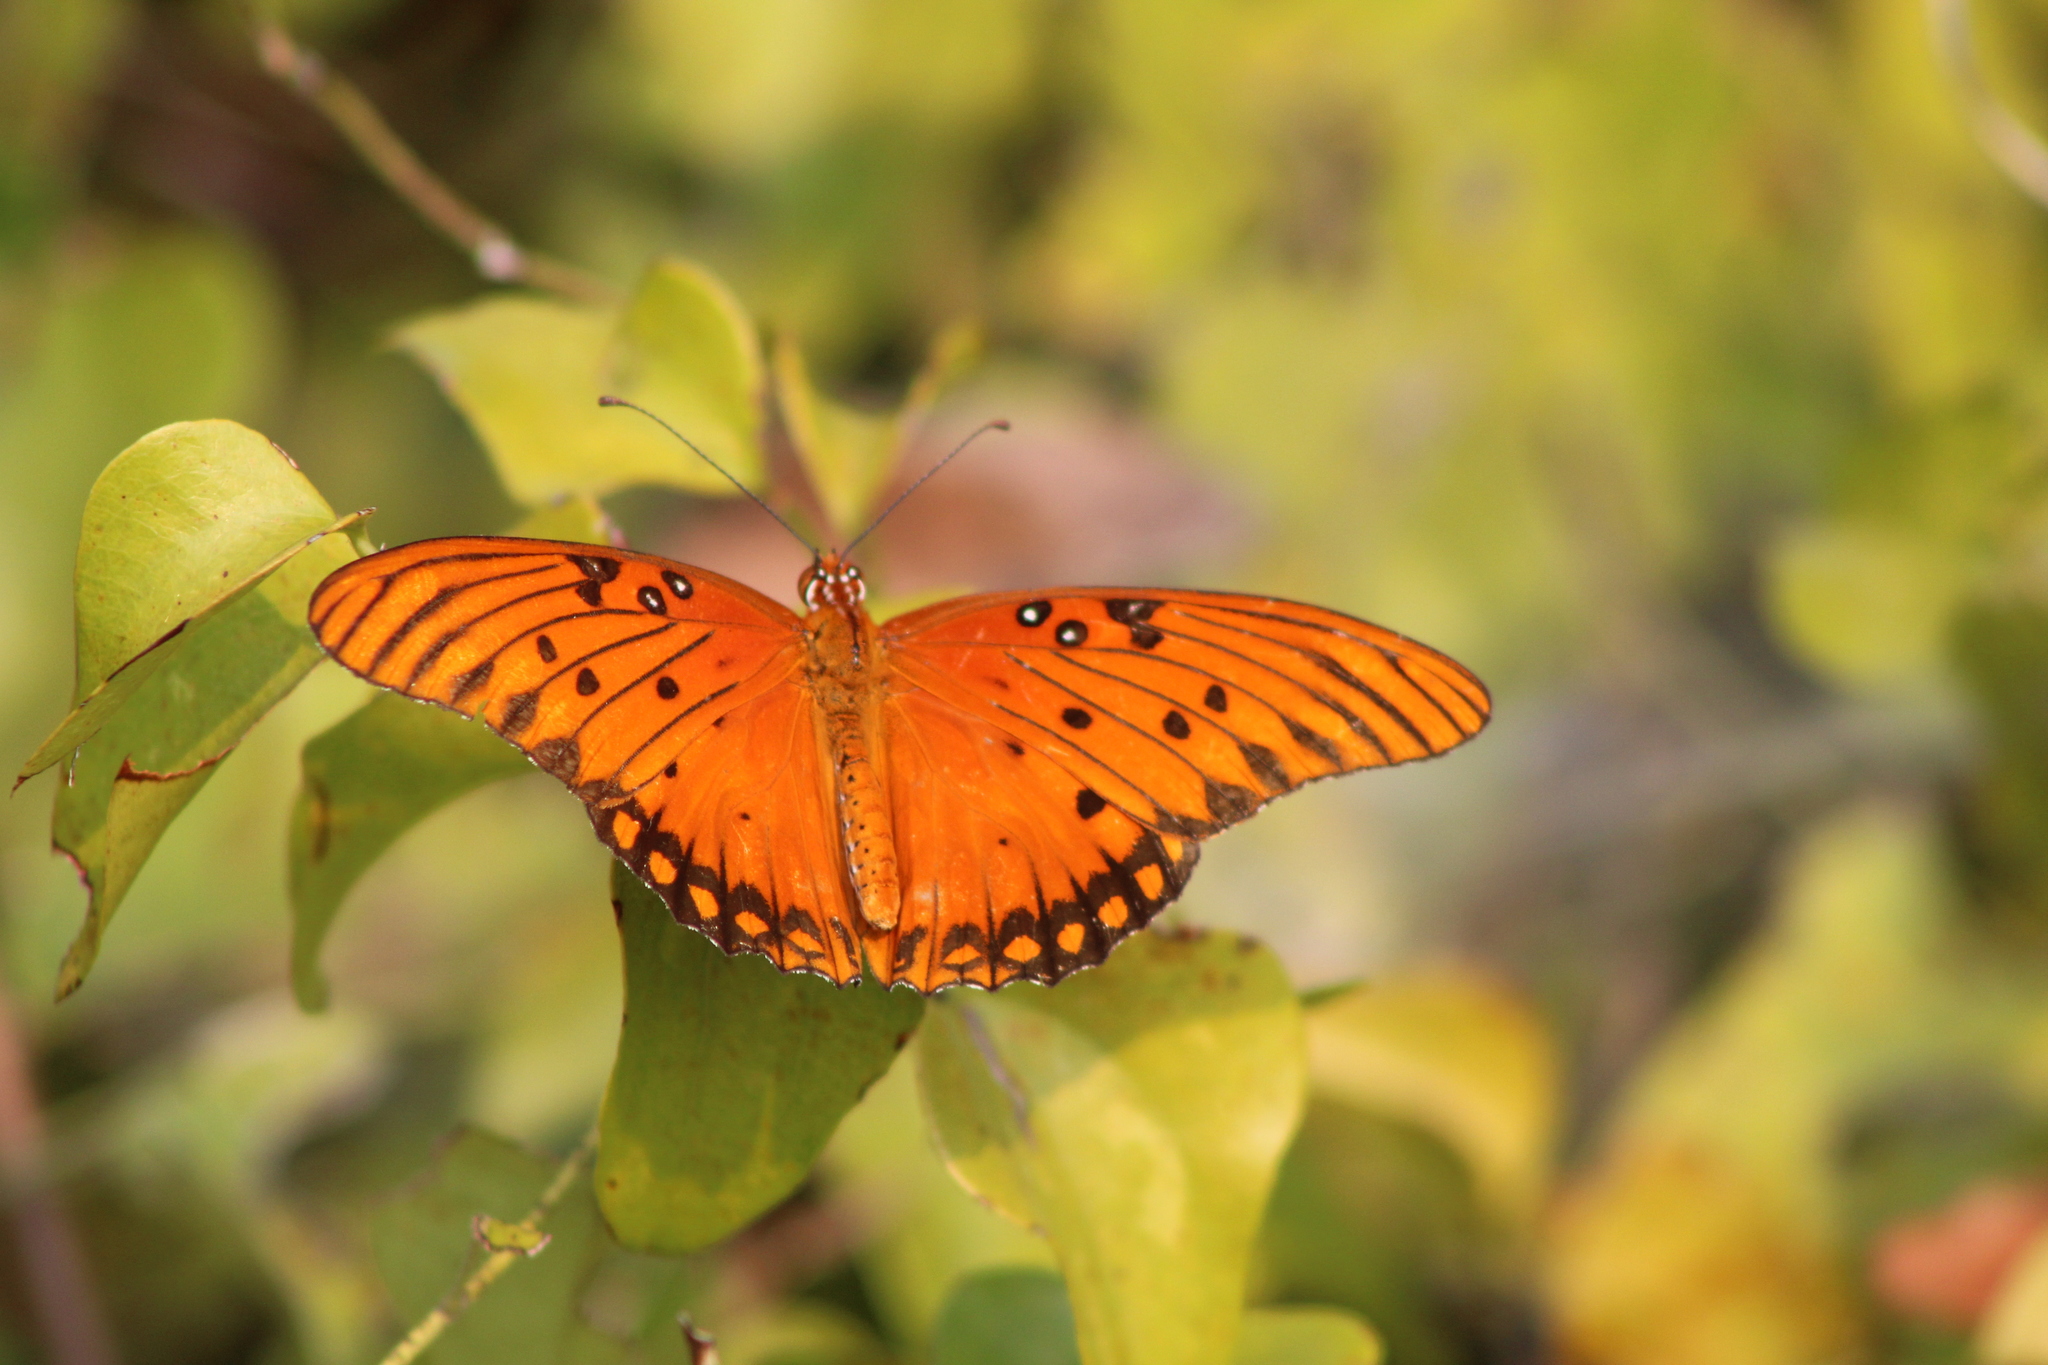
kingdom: Animalia
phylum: Arthropoda
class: Insecta
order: Lepidoptera
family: Nymphalidae
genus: Dione
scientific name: Dione vanillae
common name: Gulf fritillary
